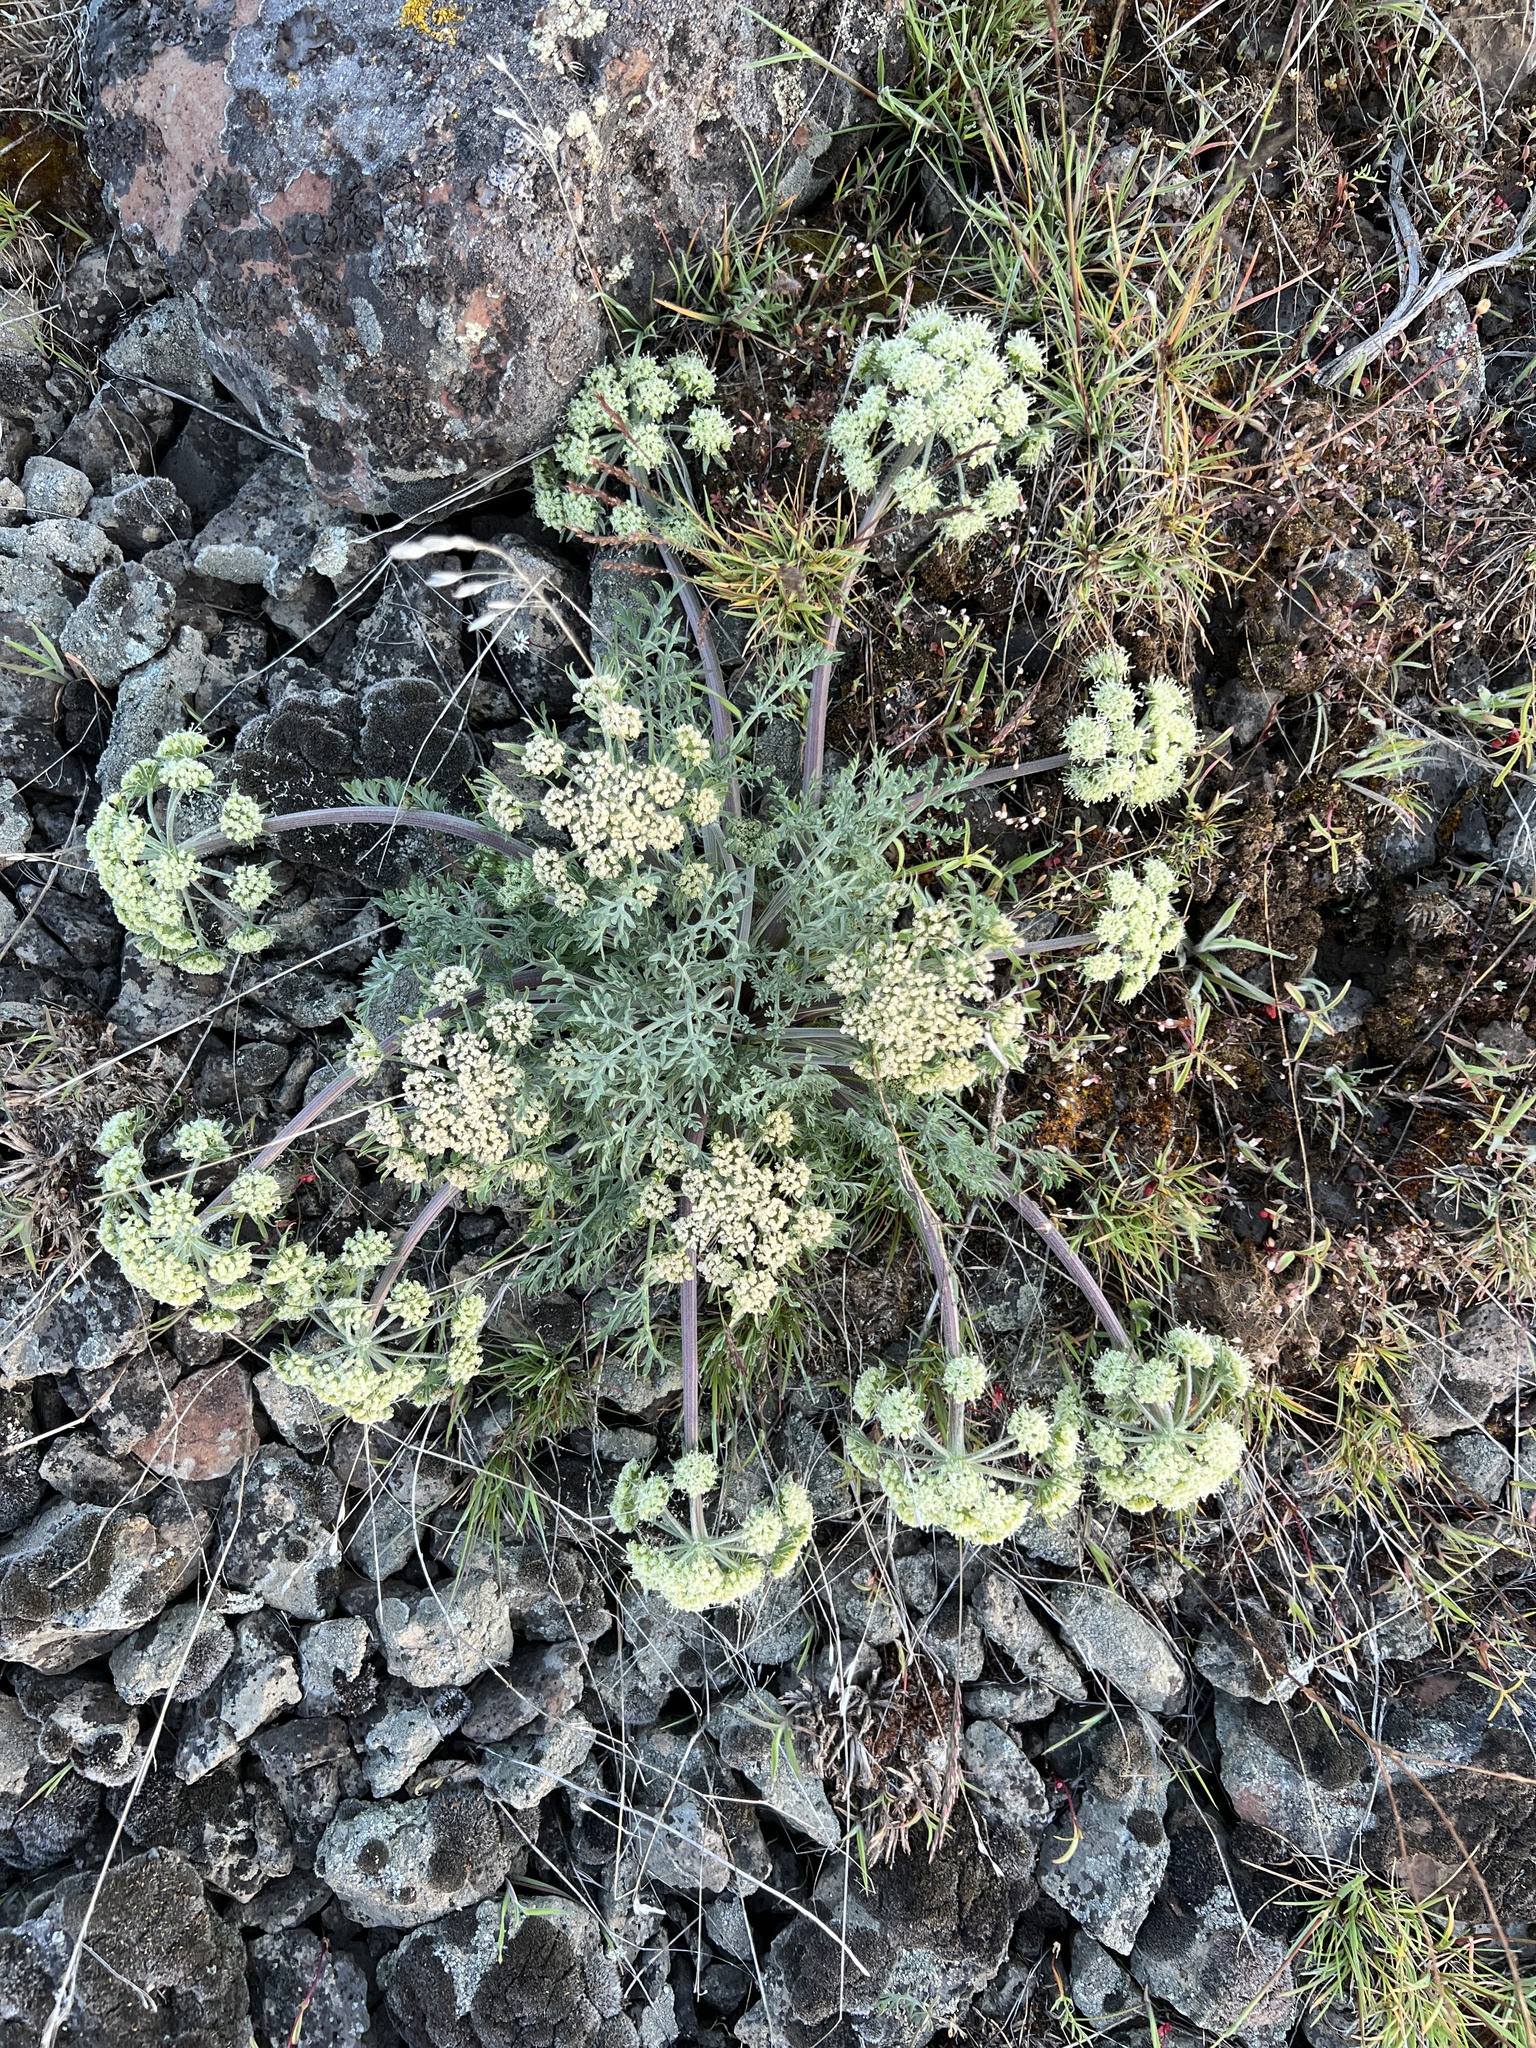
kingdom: Plantae
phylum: Tracheophyta
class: Magnoliopsida
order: Apiales
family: Apiaceae
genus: Lomatium
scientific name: Lomatium macrocarpum
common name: Big-seed biscuitroot
